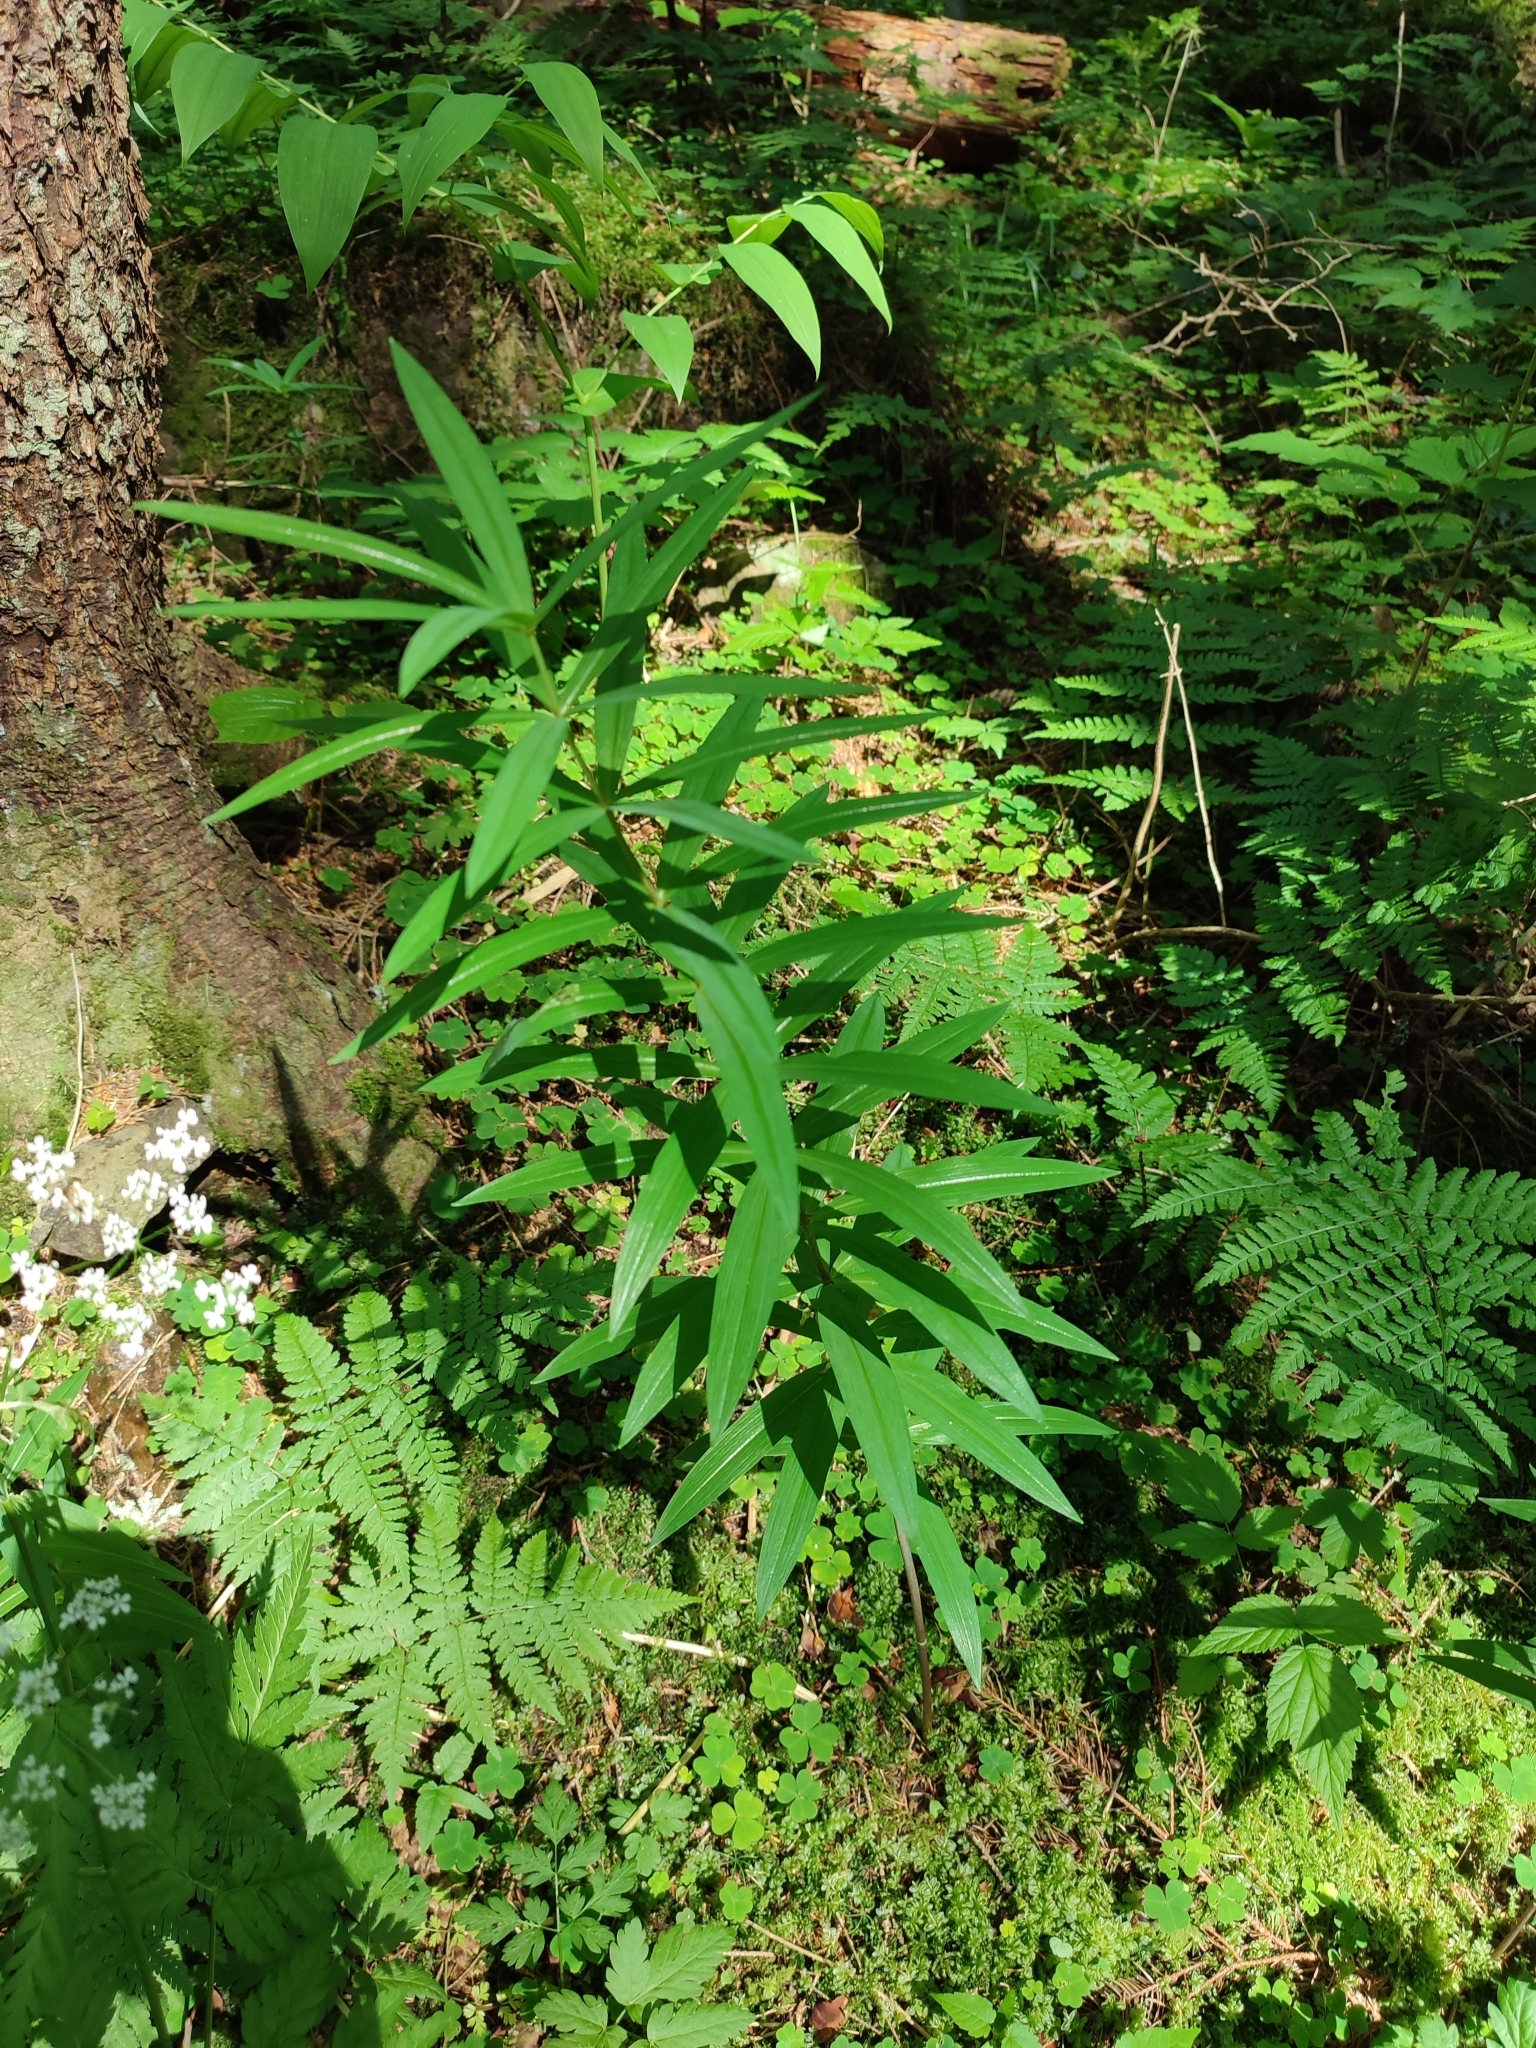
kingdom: Plantae
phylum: Tracheophyta
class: Liliopsida
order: Asparagales
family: Asparagaceae
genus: Polygonatum
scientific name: Polygonatum verticillatum
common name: Whorled solomon's-seal
